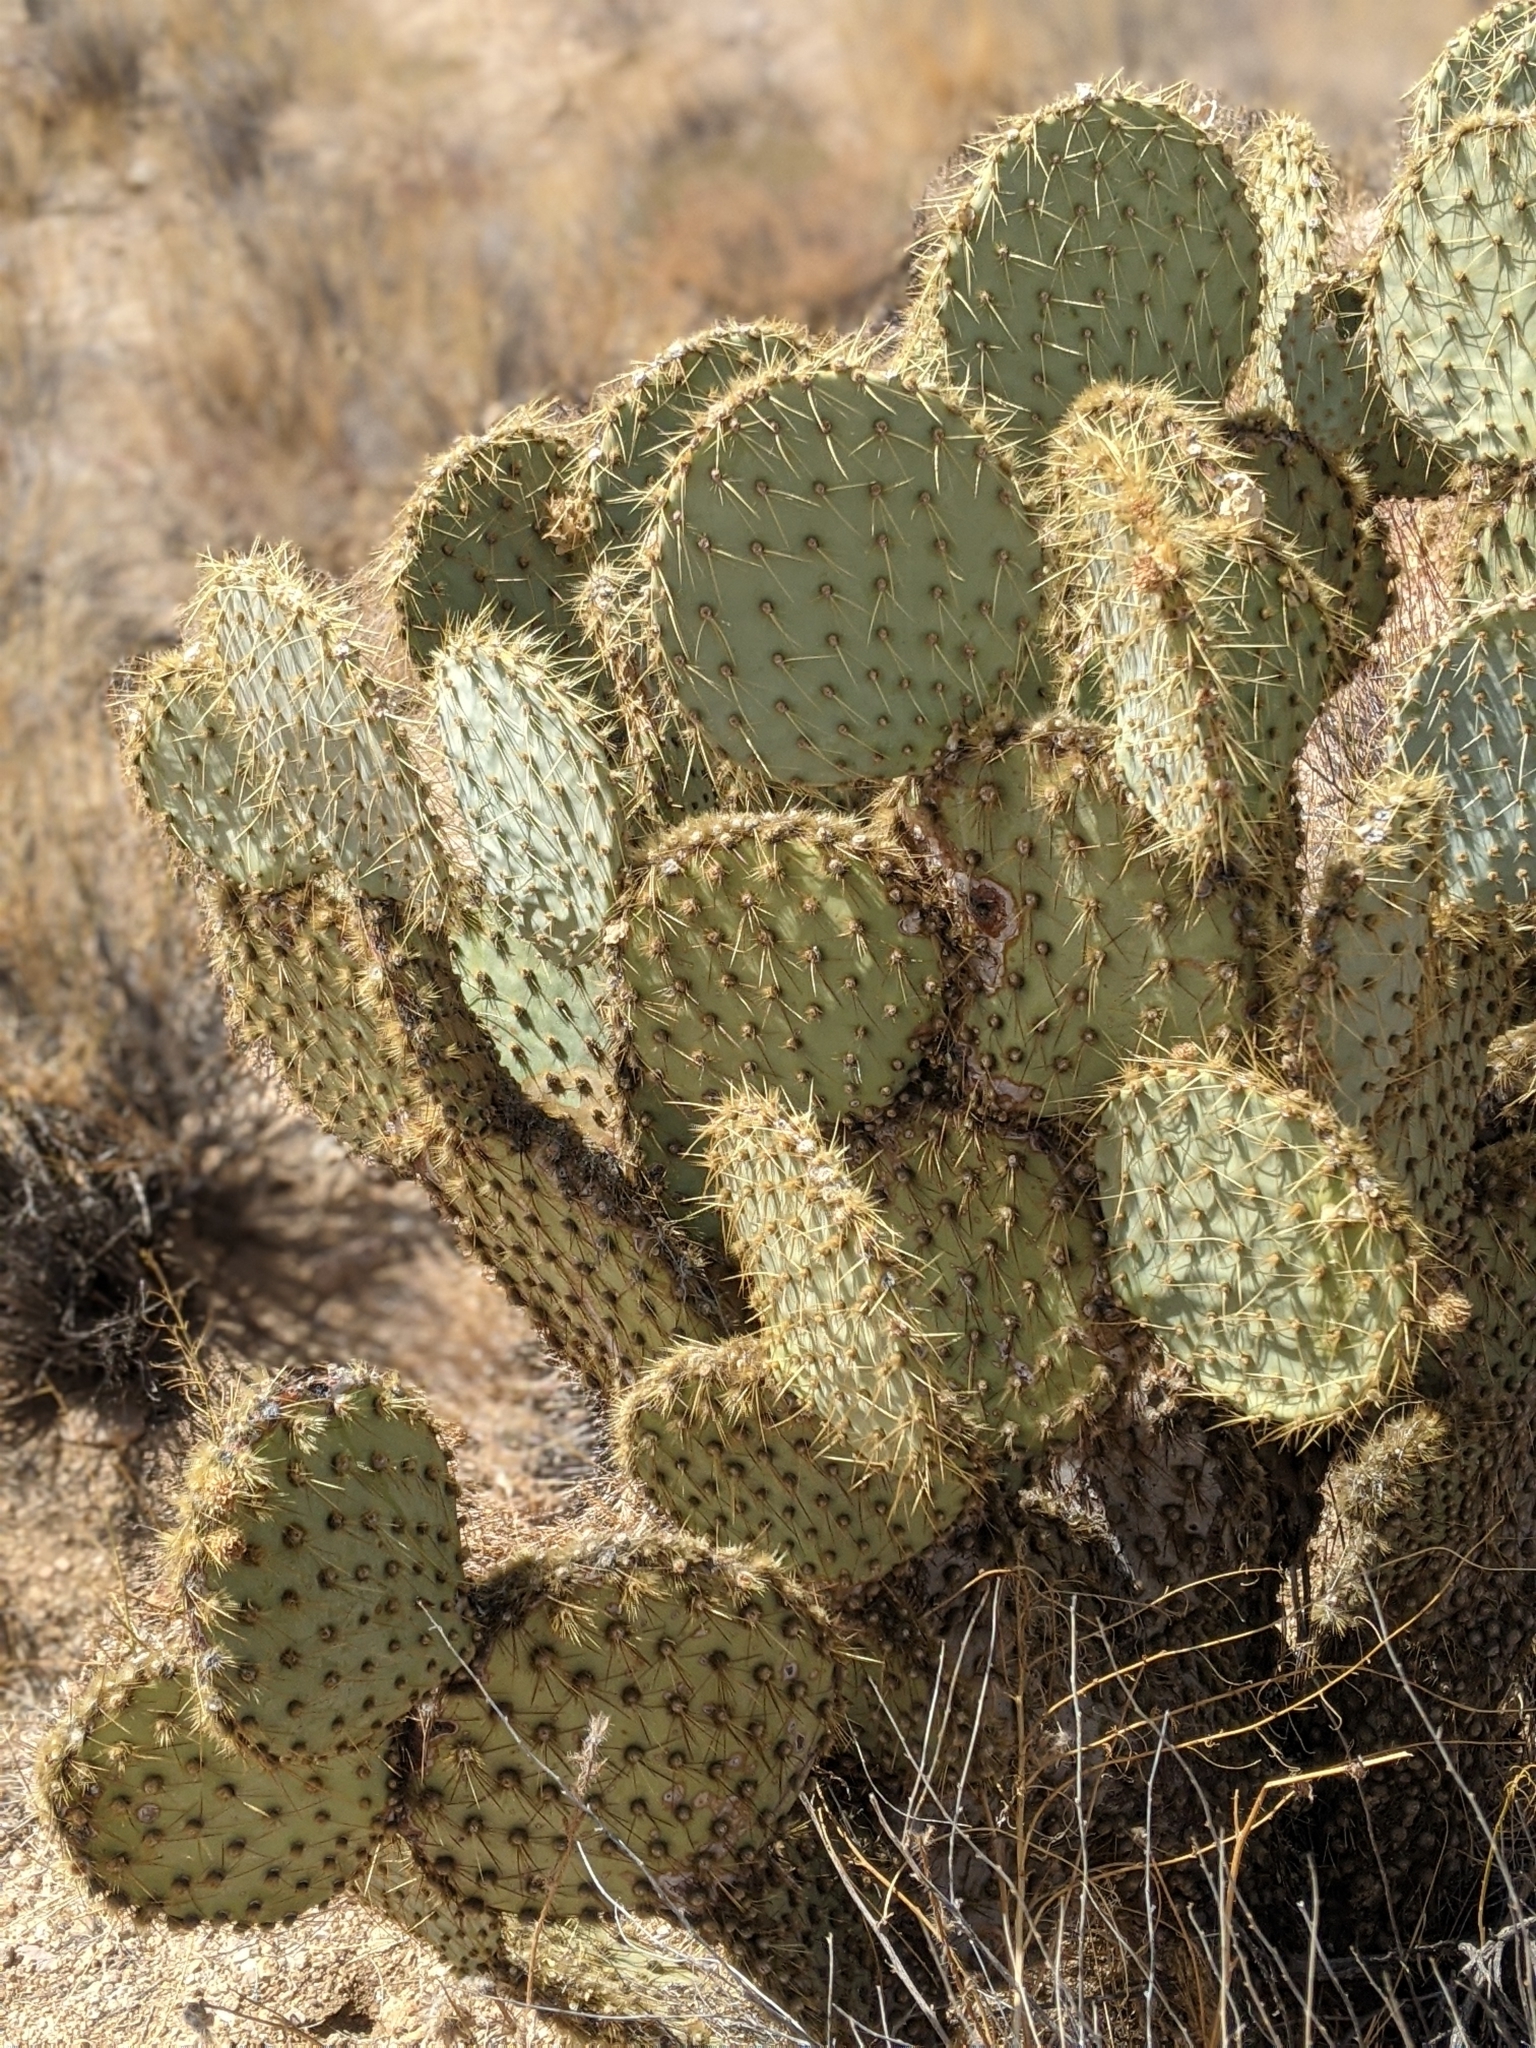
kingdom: Plantae
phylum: Tracheophyta
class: Magnoliopsida
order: Caryophyllales
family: Cactaceae
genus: Opuntia
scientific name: Opuntia chlorotica
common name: Dollar-joint prickly-pear
